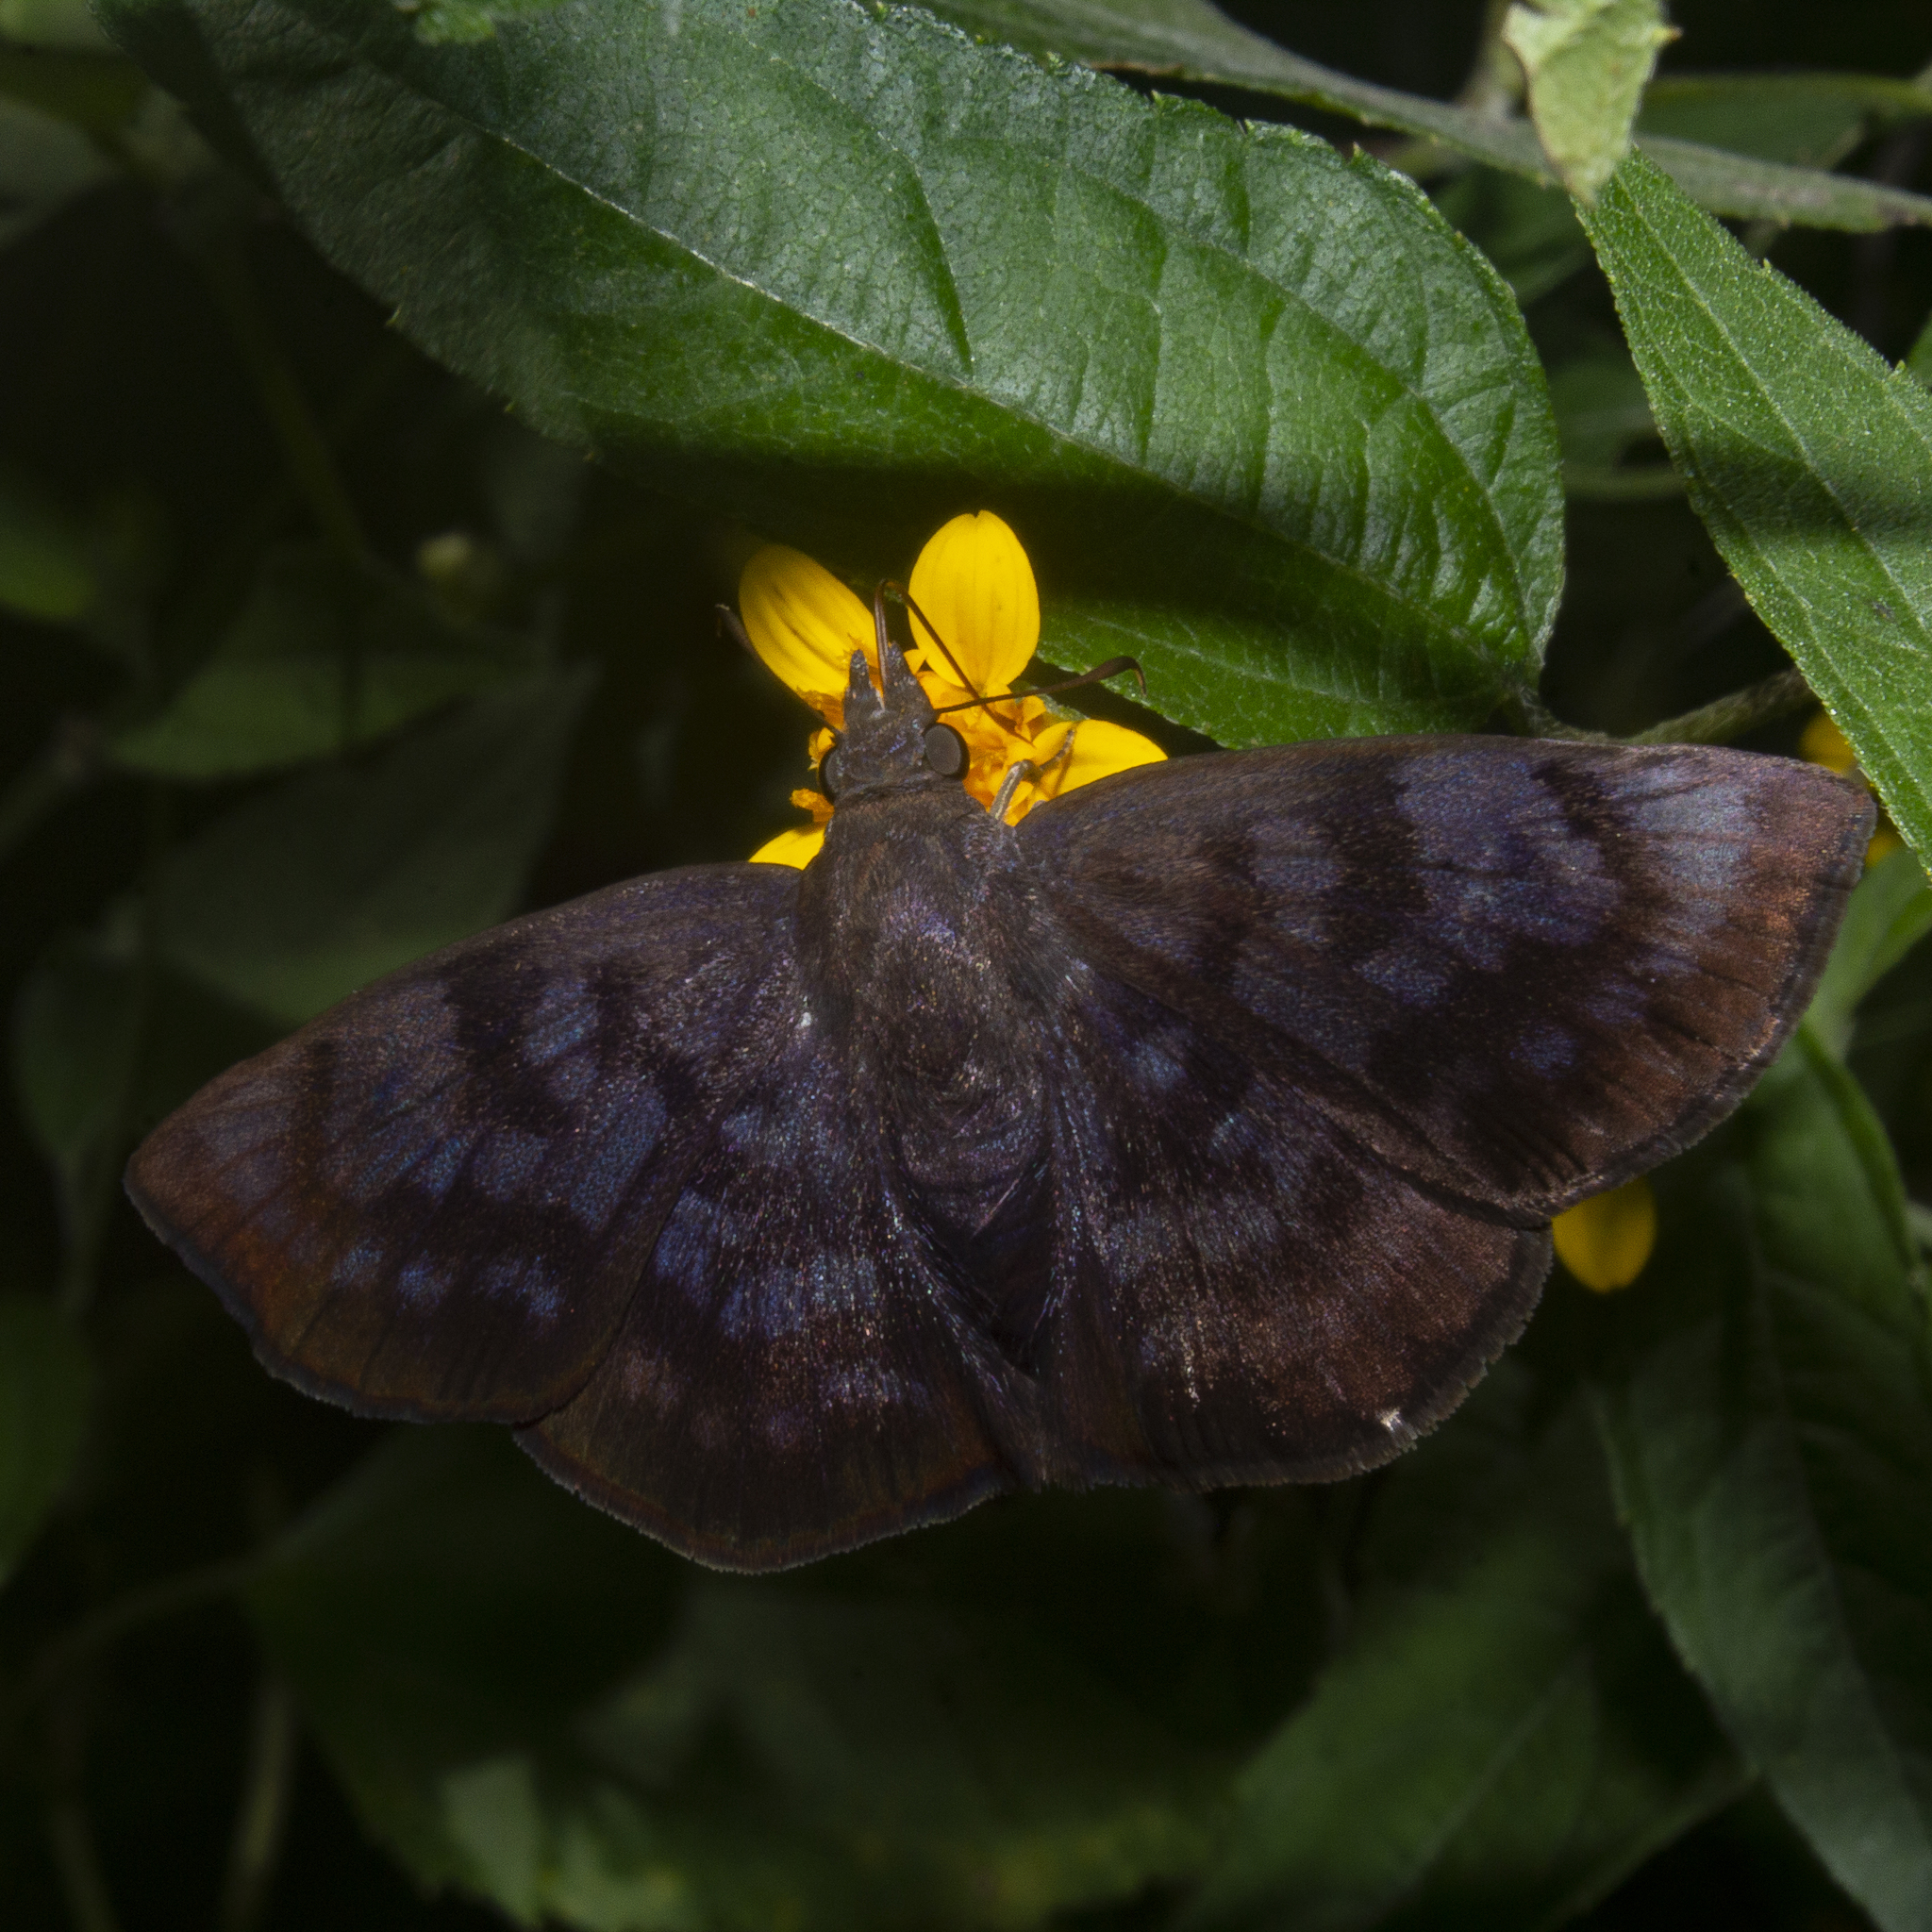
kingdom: Animalia
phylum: Arthropoda
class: Insecta
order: Lepidoptera
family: Hesperiidae
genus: Pellicia
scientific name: Pellicia costimacula
